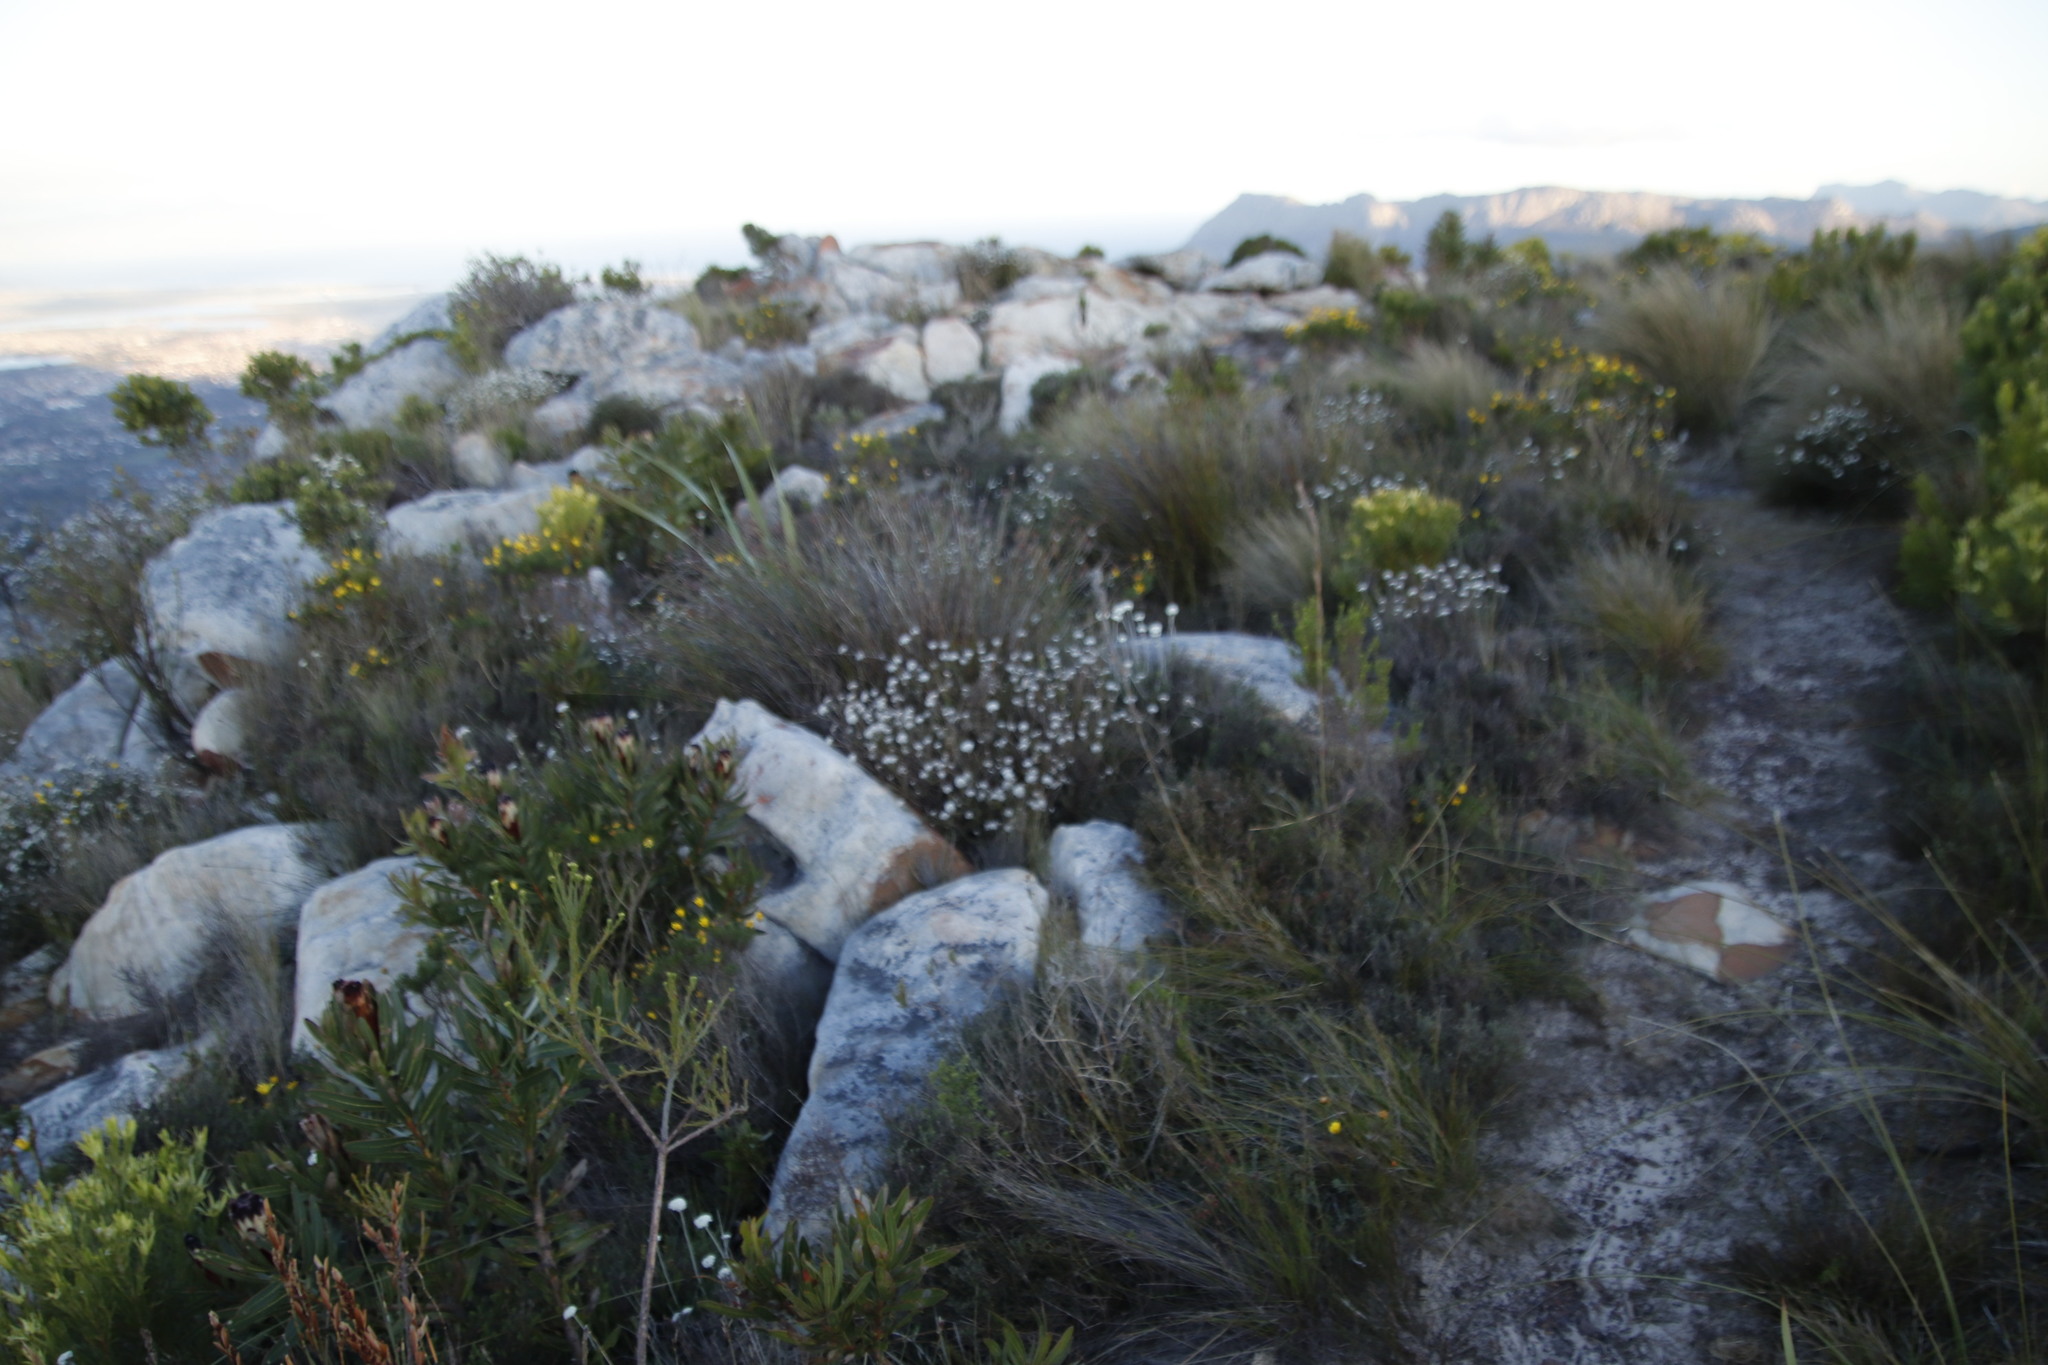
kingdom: Plantae
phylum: Tracheophyta
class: Magnoliopsida
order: Asterales
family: Asteraceae
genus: Metalasia
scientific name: Metalasia densa
